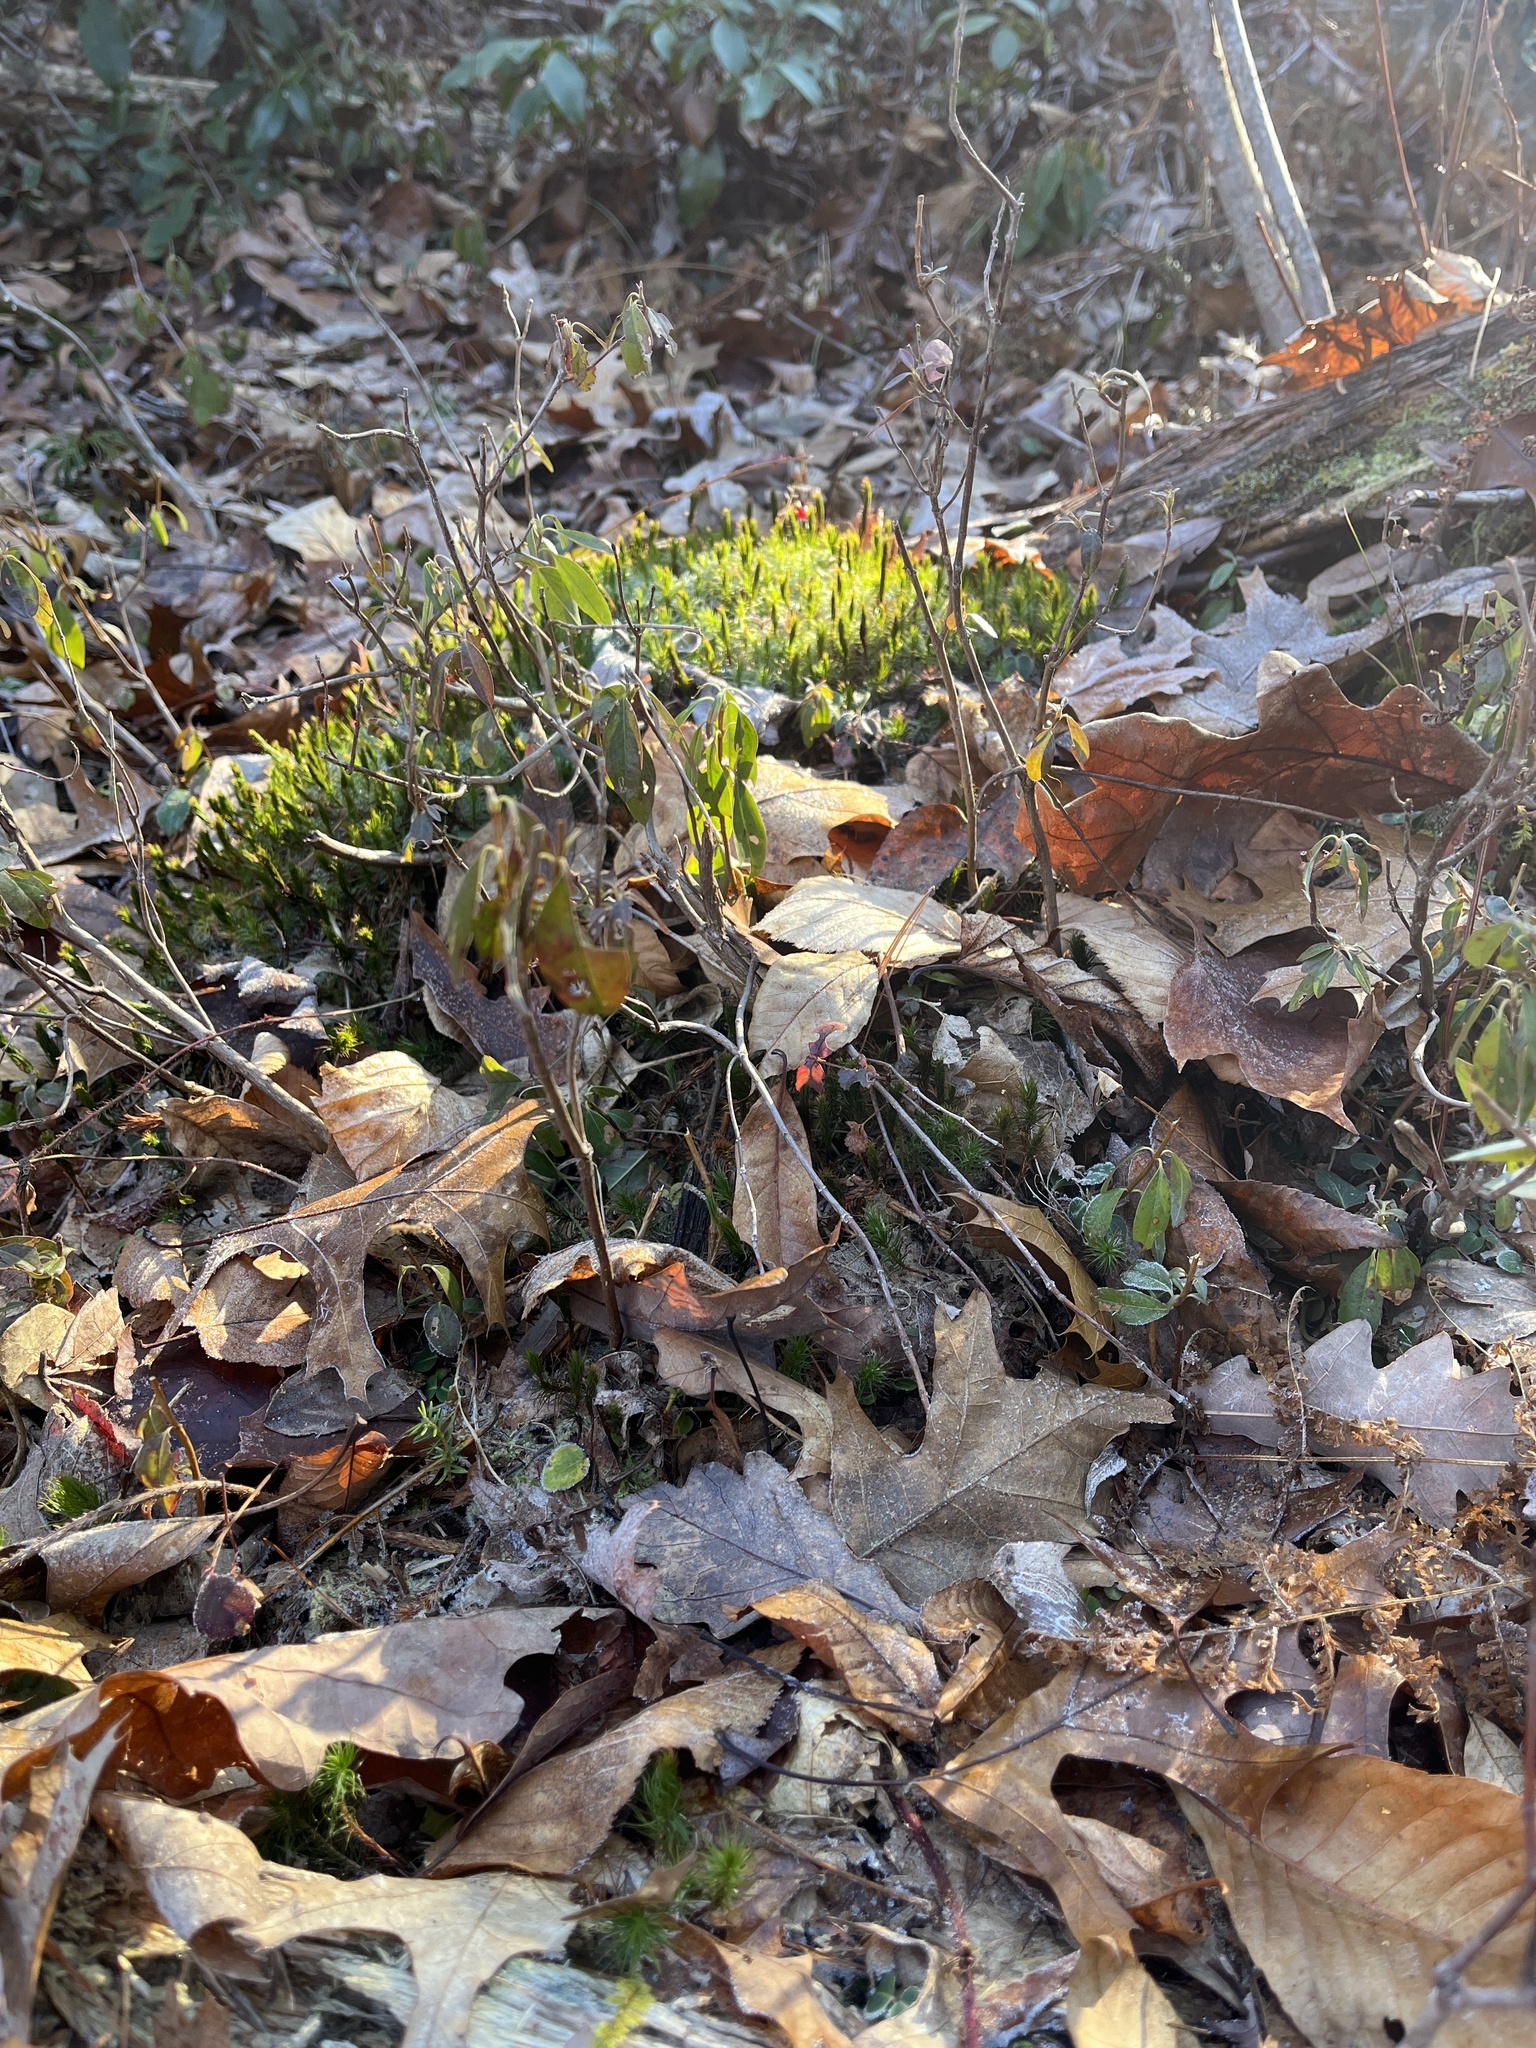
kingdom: Plantae
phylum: Tracheophyta
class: Magnoliopsida
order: Ericales
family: Ericaceae
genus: Kalmia
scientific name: Kalmia angustifolia
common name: Sheep-laurel
